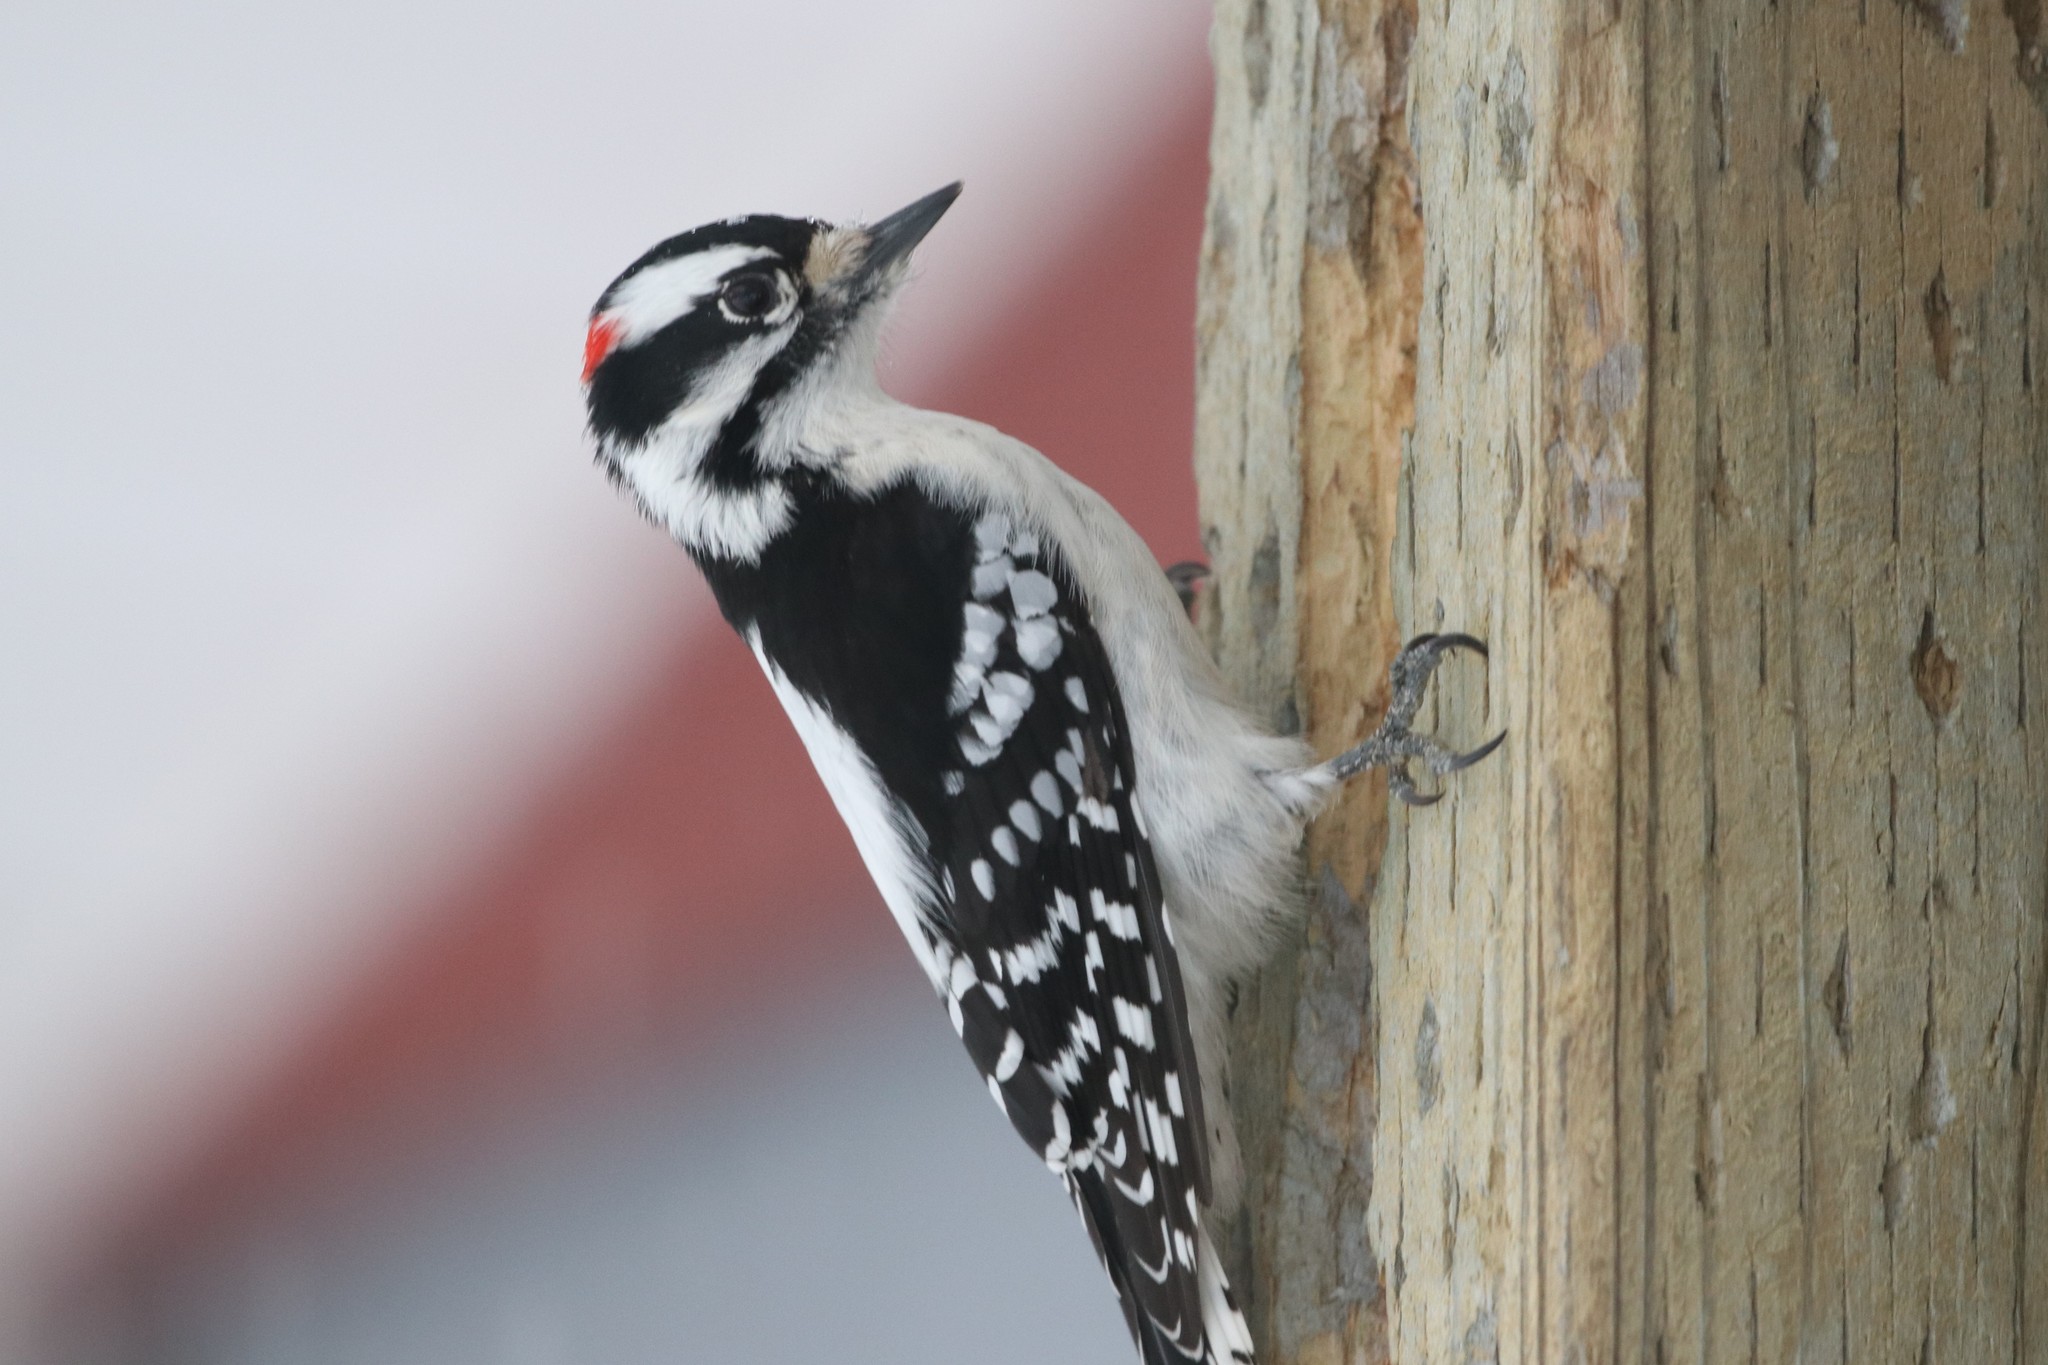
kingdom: Animalia
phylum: Chordata
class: Aves
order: Piciformes
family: Picidae
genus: Dryobates
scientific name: Dryobates pubescens
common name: Downy woodpecker
